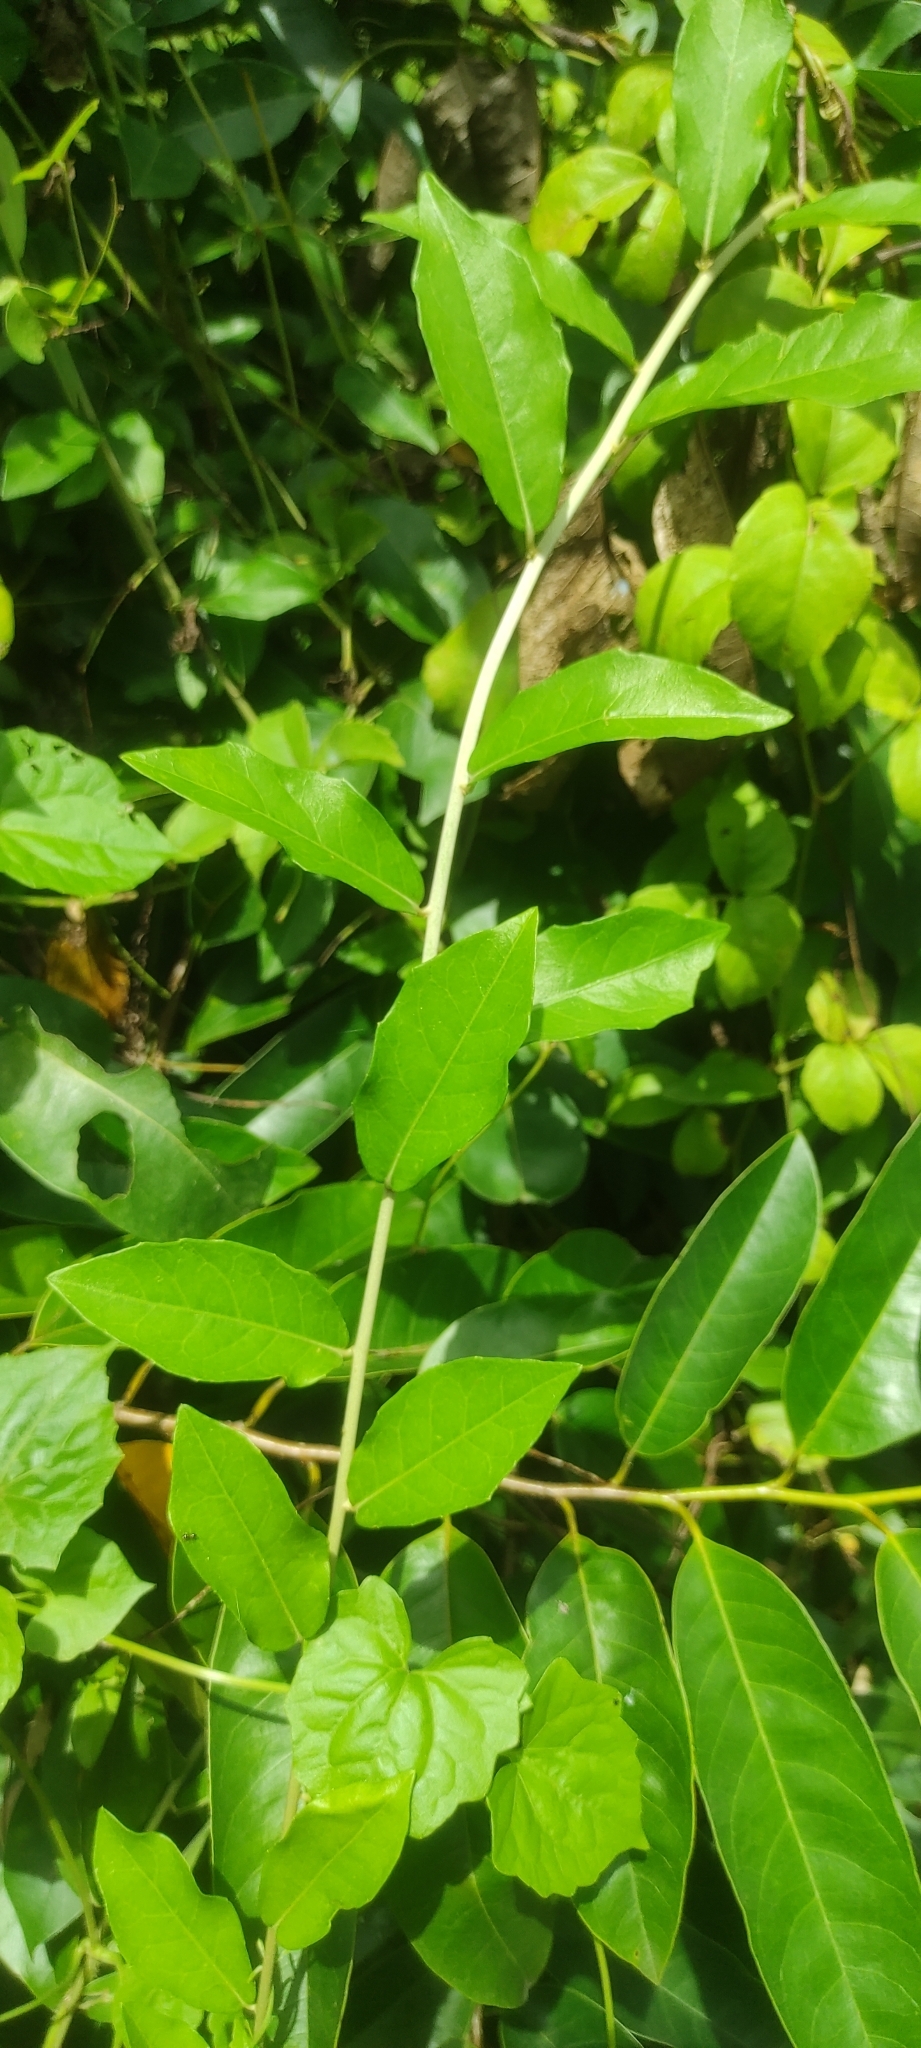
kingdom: Plantae
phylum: Tracheophyta
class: Magnoliopsida
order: Asterales
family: Asteraceae
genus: Tarlmounia
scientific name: Tarlmounia elliptica
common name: Kheua sa lot
